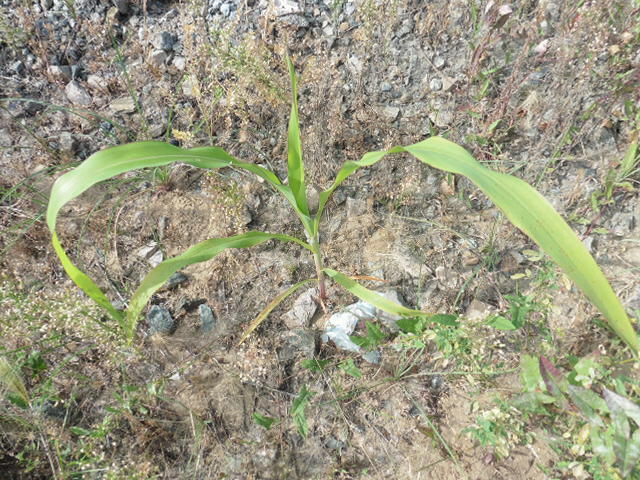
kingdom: Plantae
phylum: Tracheophyta
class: Liliopsida
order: Poales
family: Poaceae
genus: Zea
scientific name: Zea mays
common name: Maize
